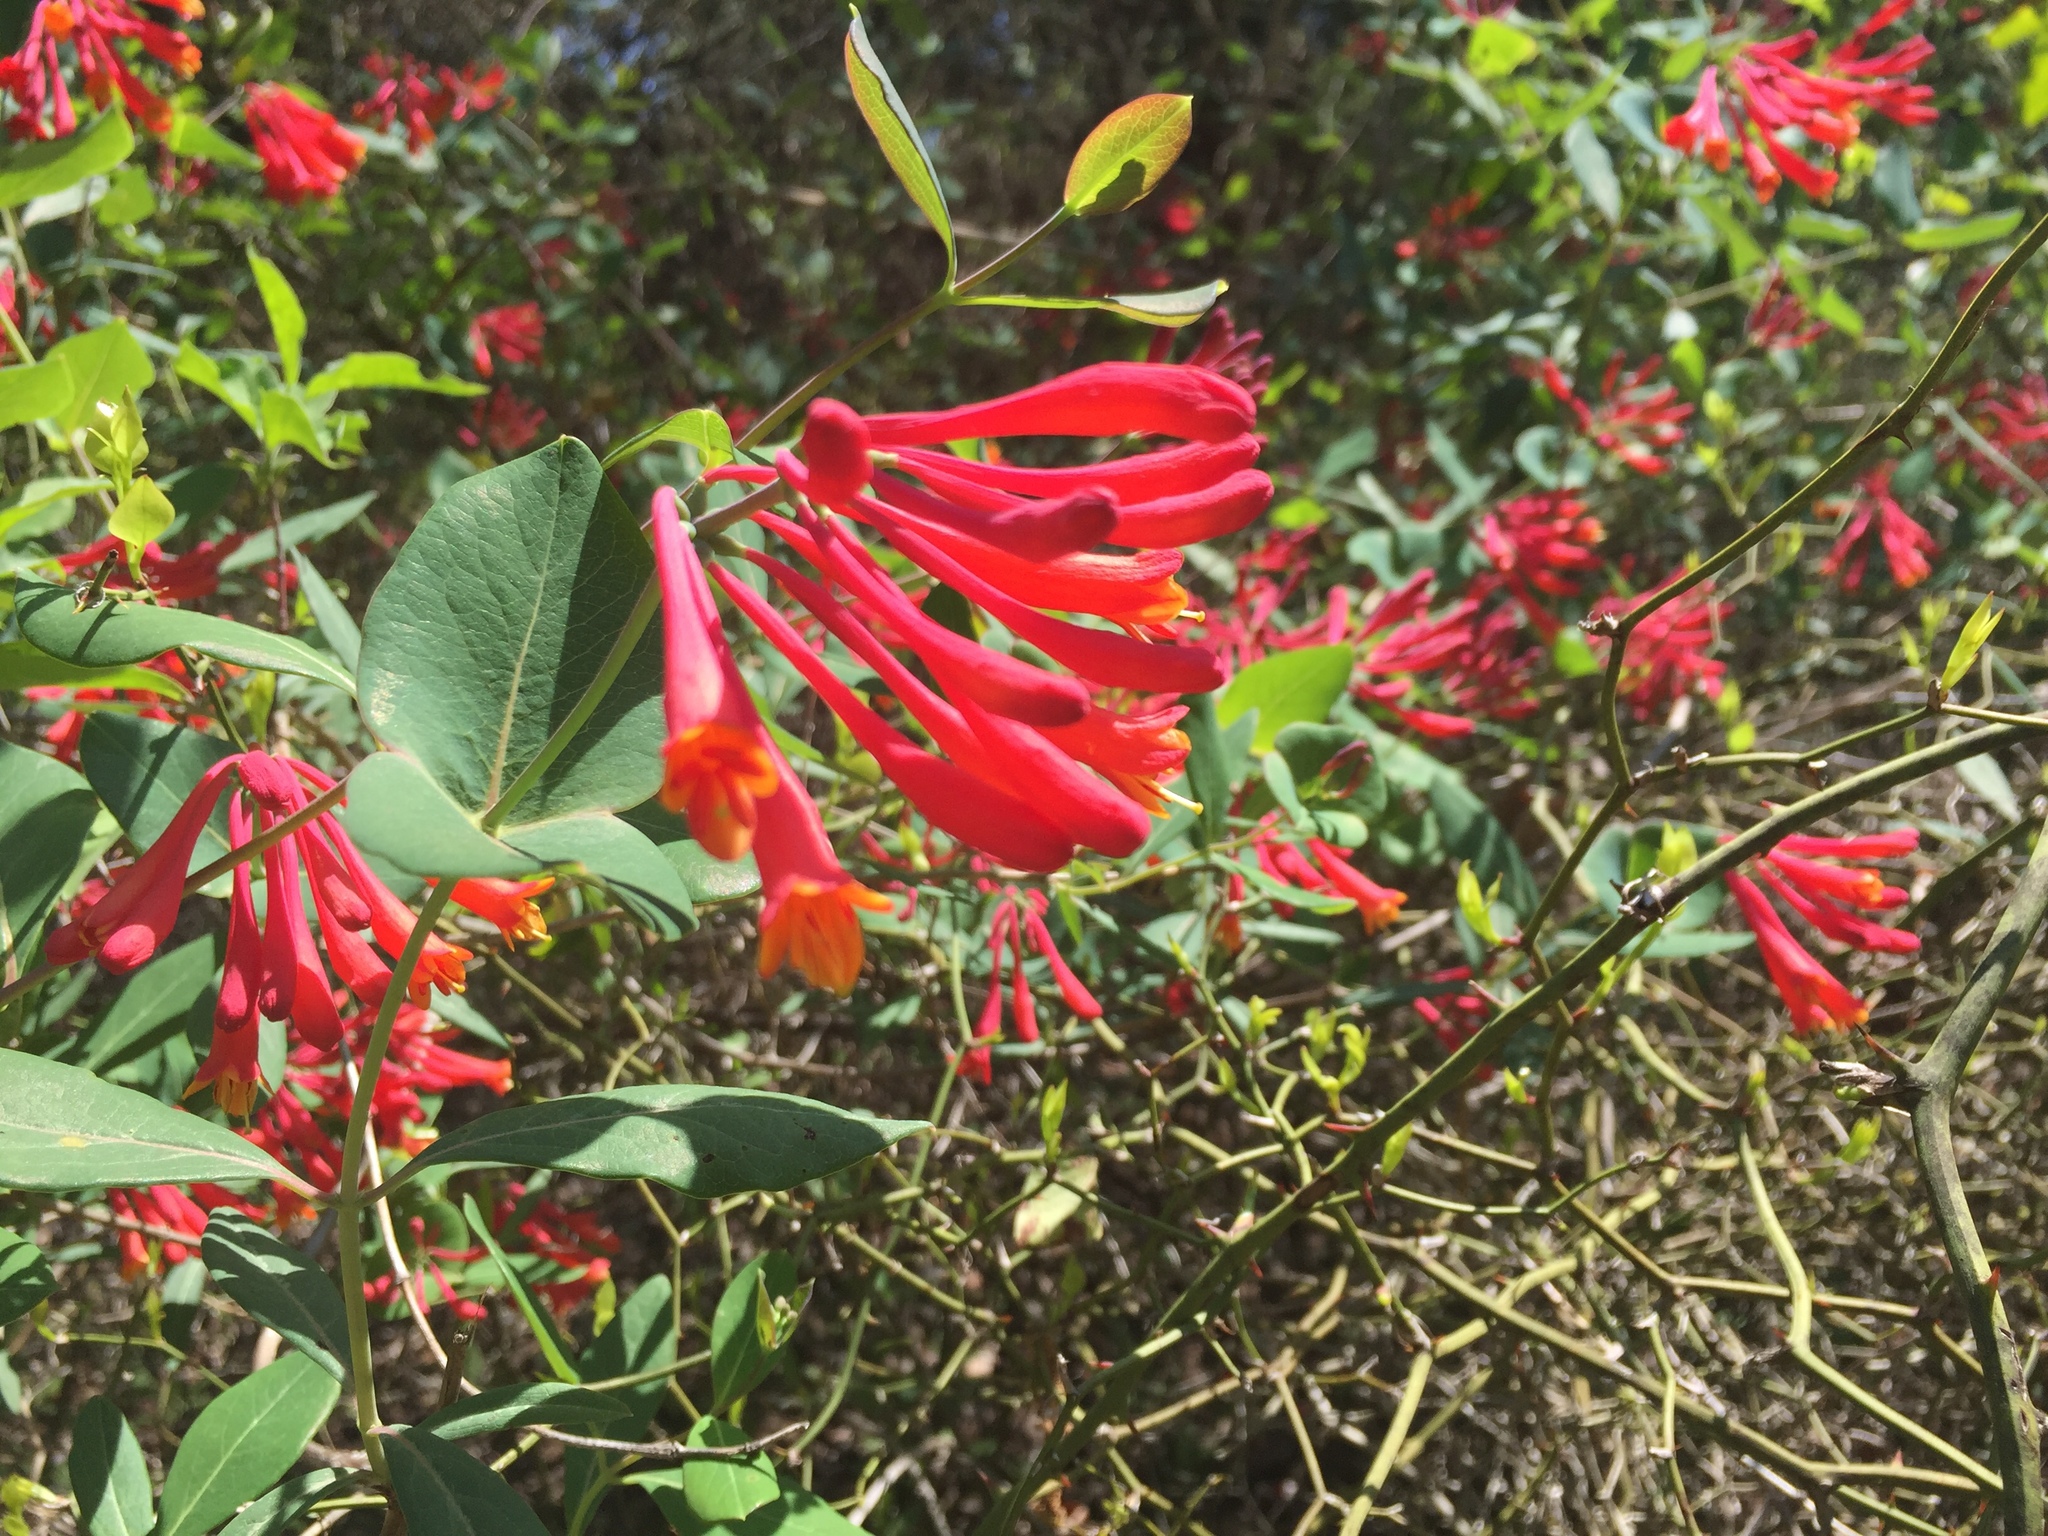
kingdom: Plantae
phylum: Tracheophyta
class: Magnoliopsida
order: Dipsacales
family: Caprifoliaceae
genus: Lonicera
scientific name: Lonicera sempervirens
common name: Coral honeysuckle
